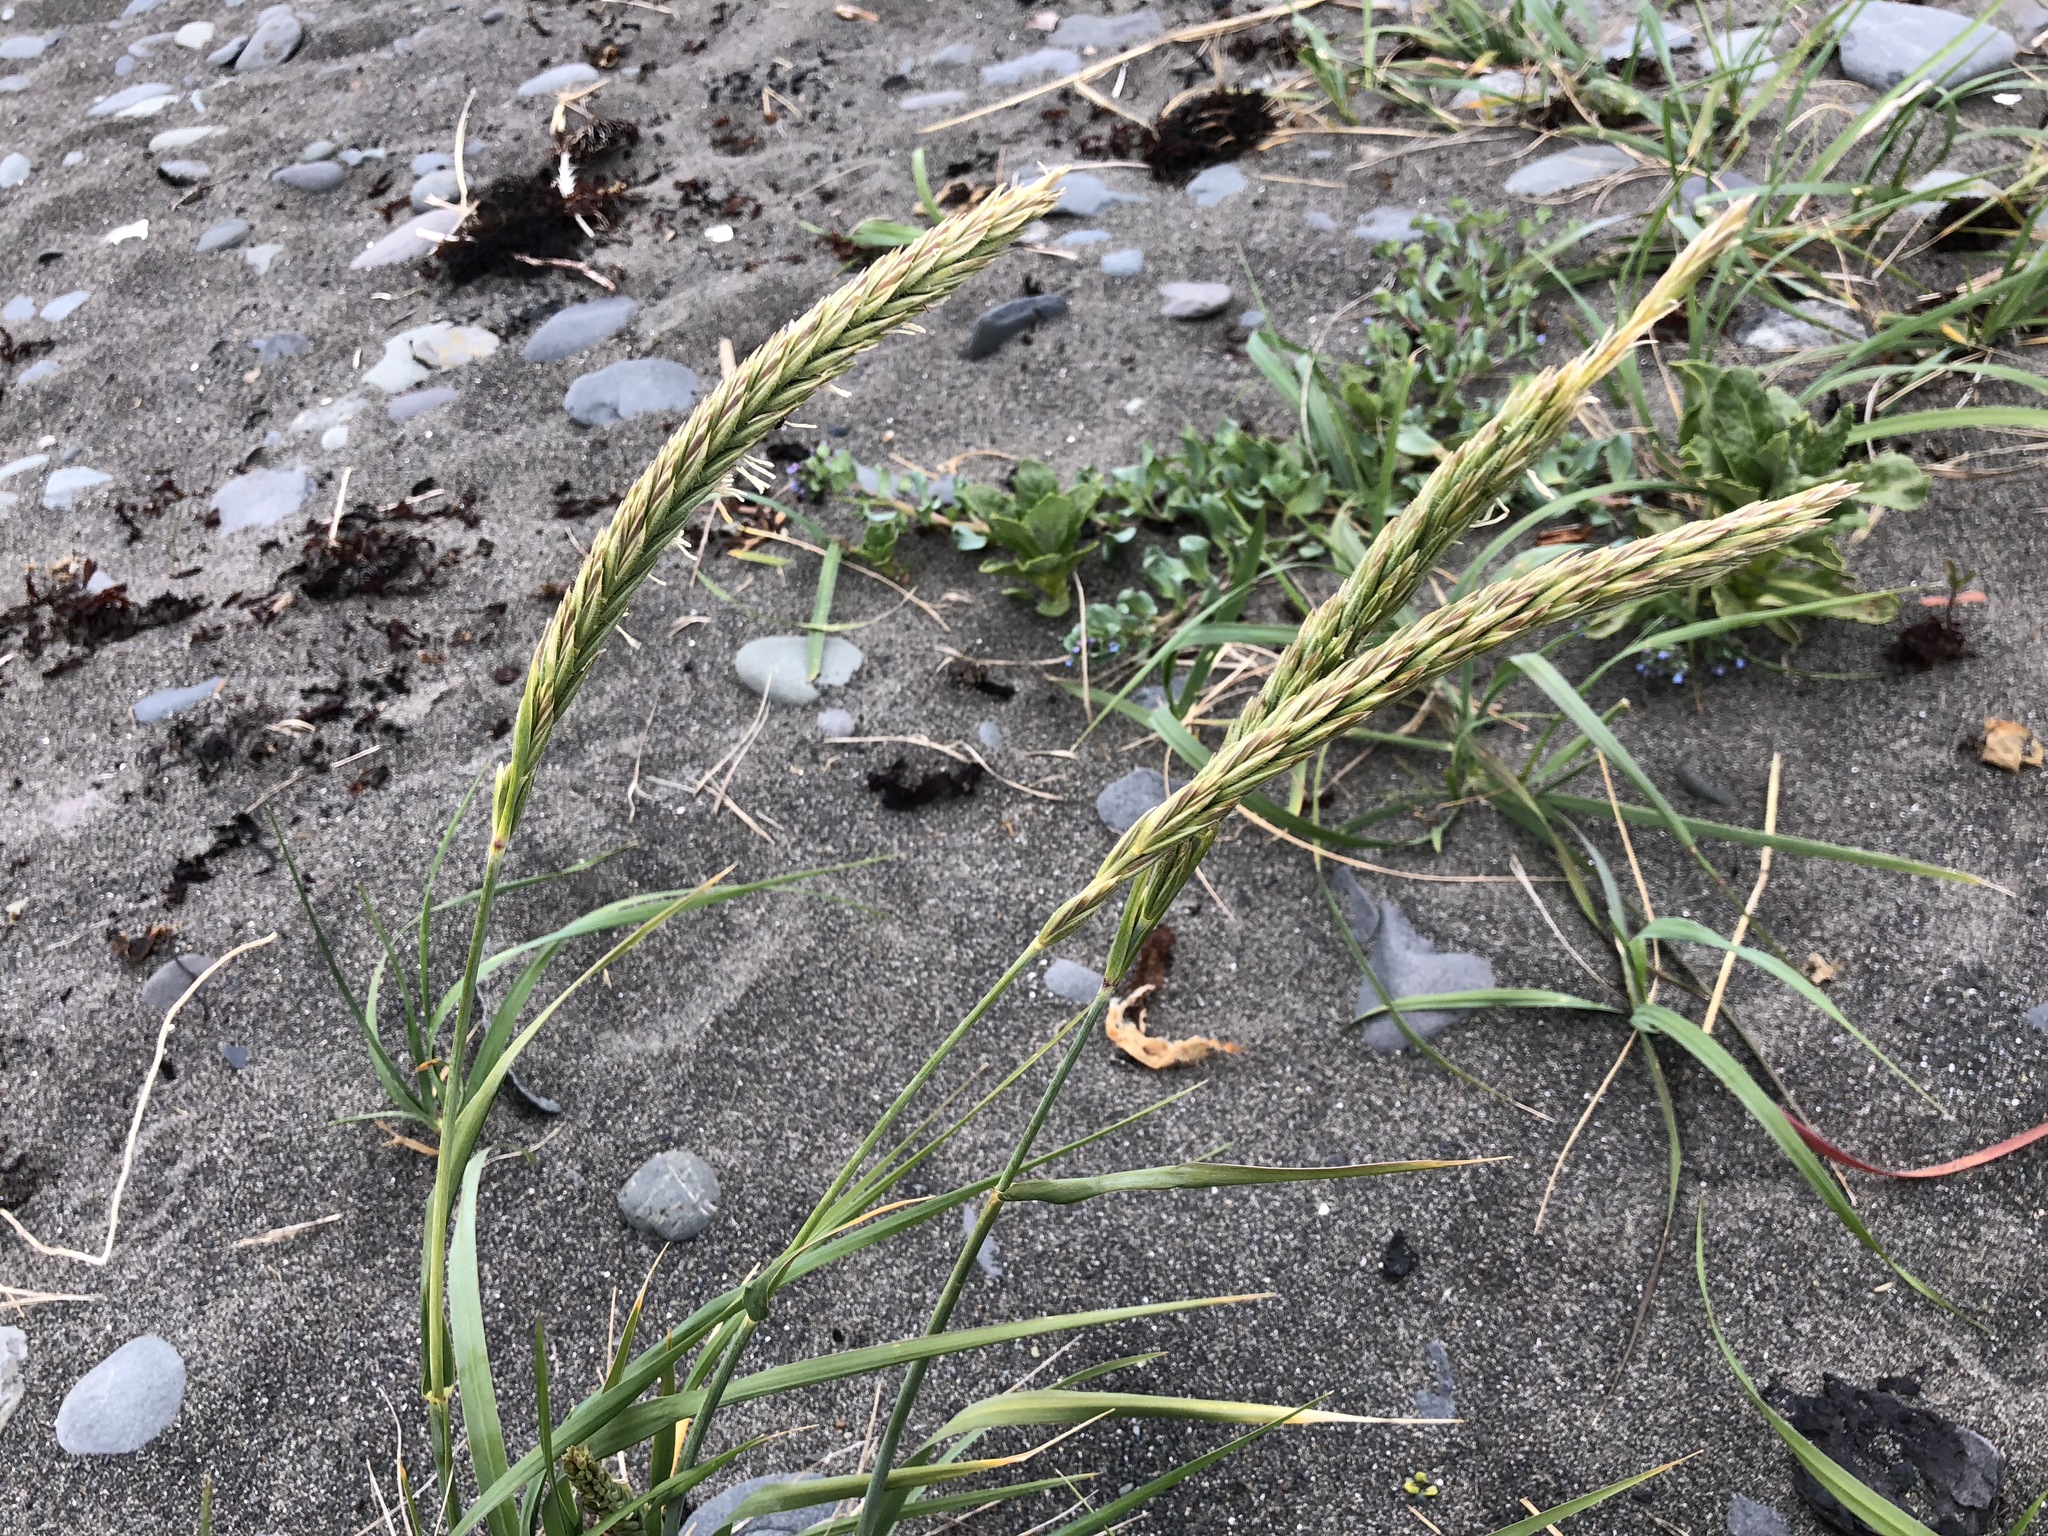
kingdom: Plantae
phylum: Tracheophyta
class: Liliopsida
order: Poales
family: Poaceae
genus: Leymus
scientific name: Leymus mollis
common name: American dune grass
